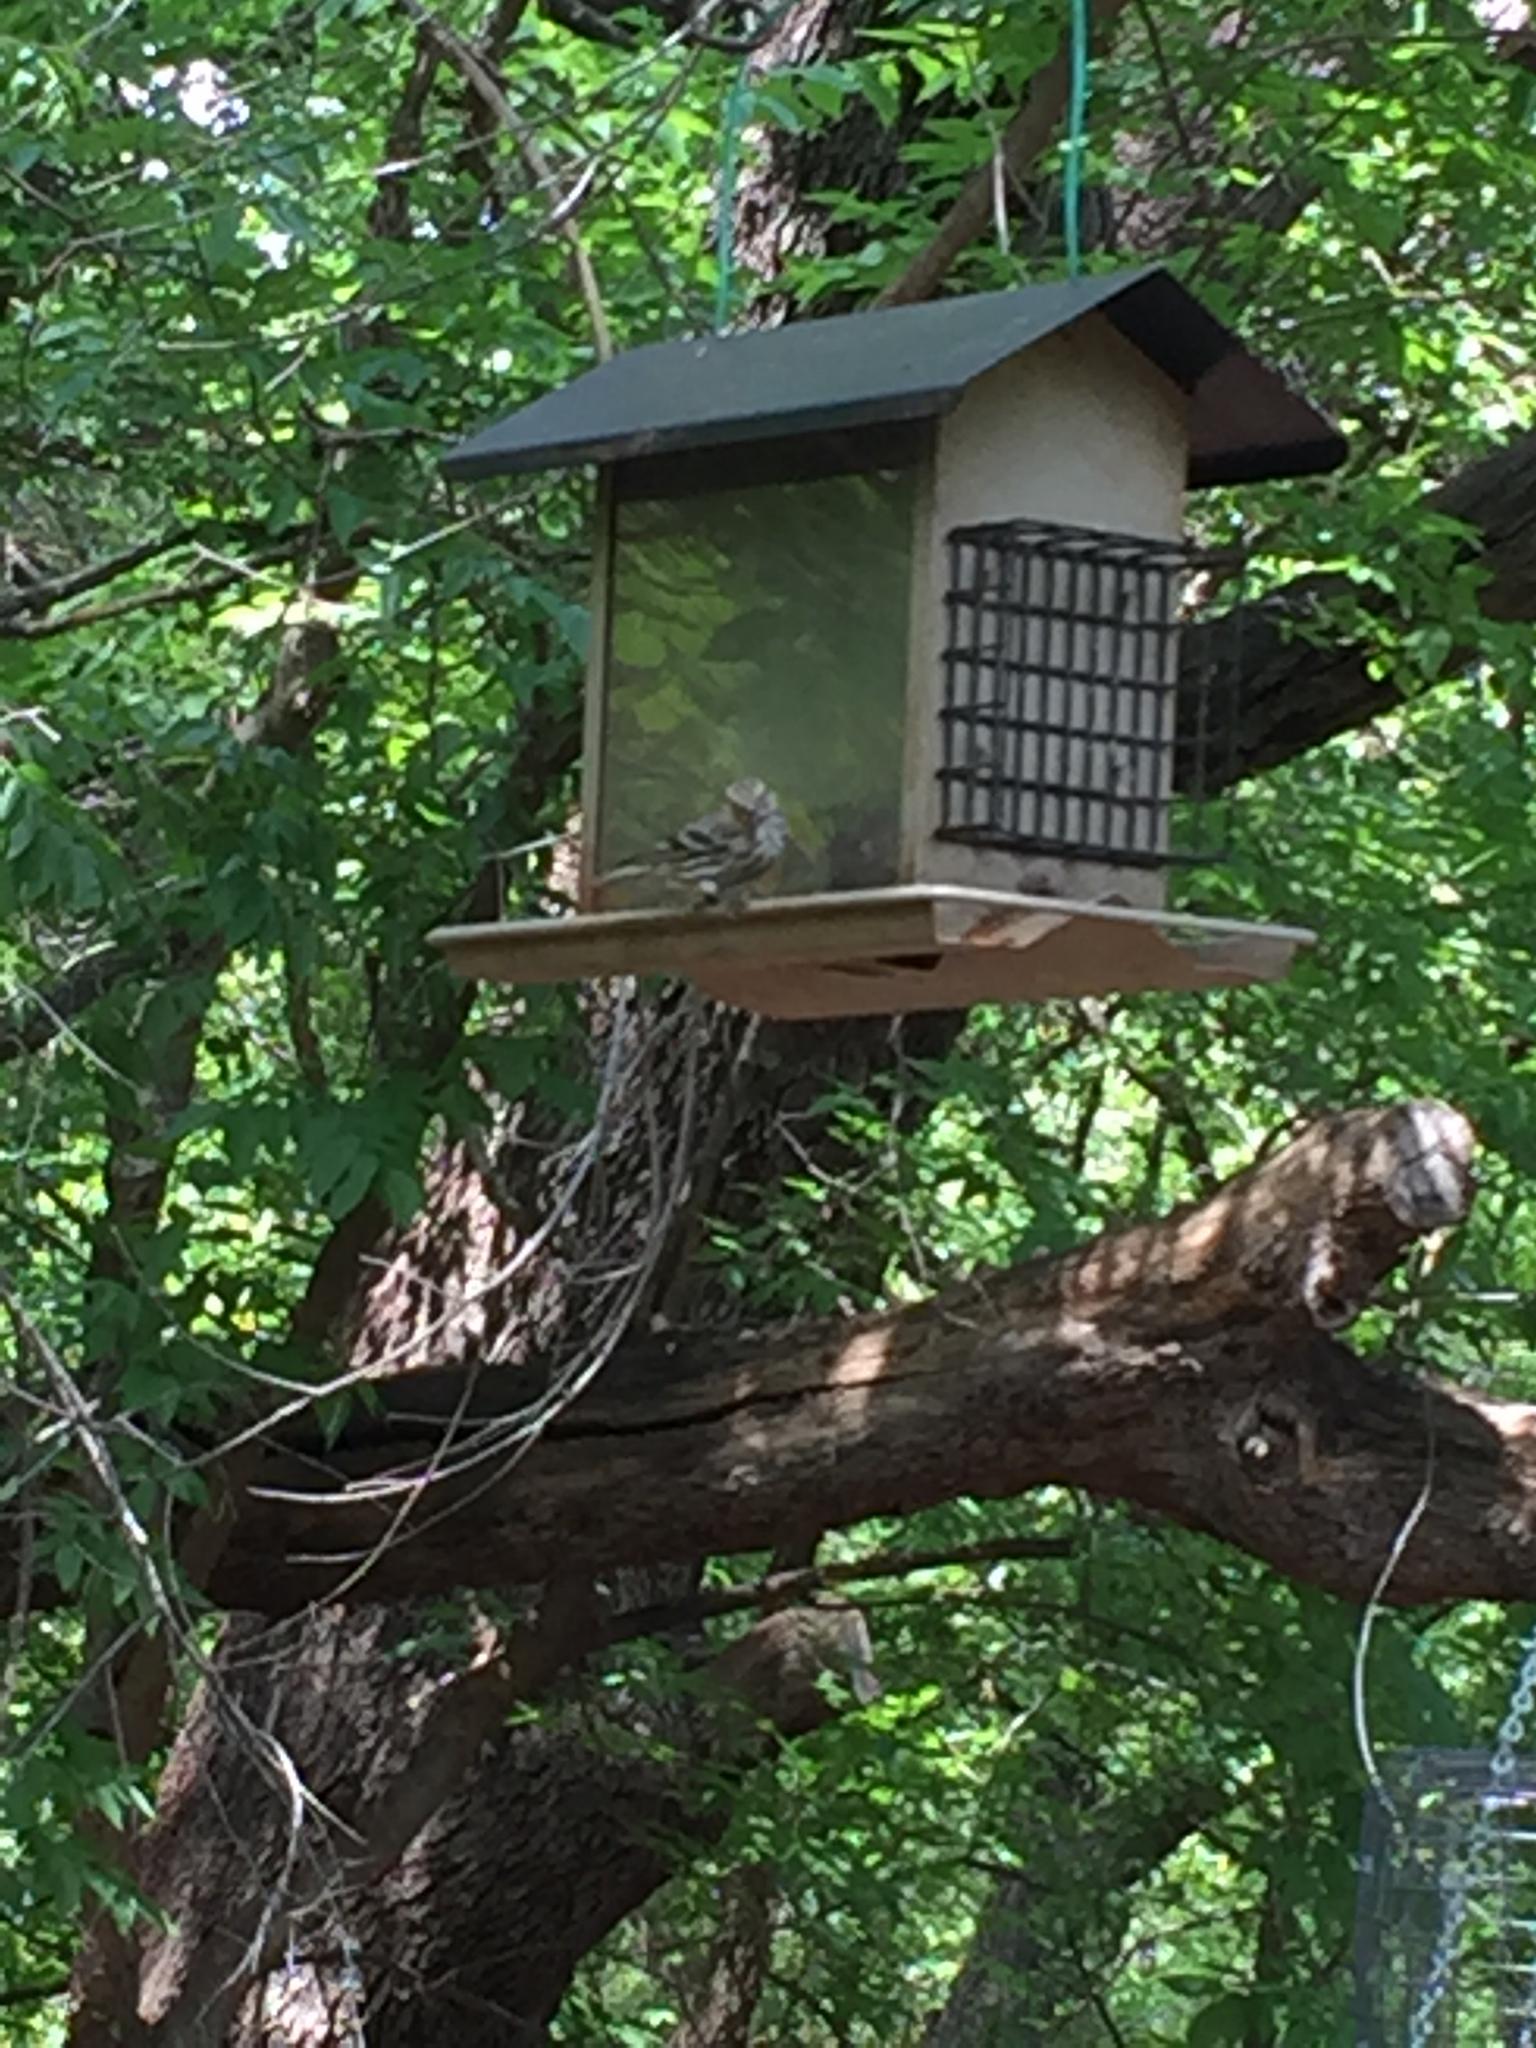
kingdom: Animalia
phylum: Chordata
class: Aves
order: Passeriformes
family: Fringillidae
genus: Spinus
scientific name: Spinus pinus
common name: Pine siskin
